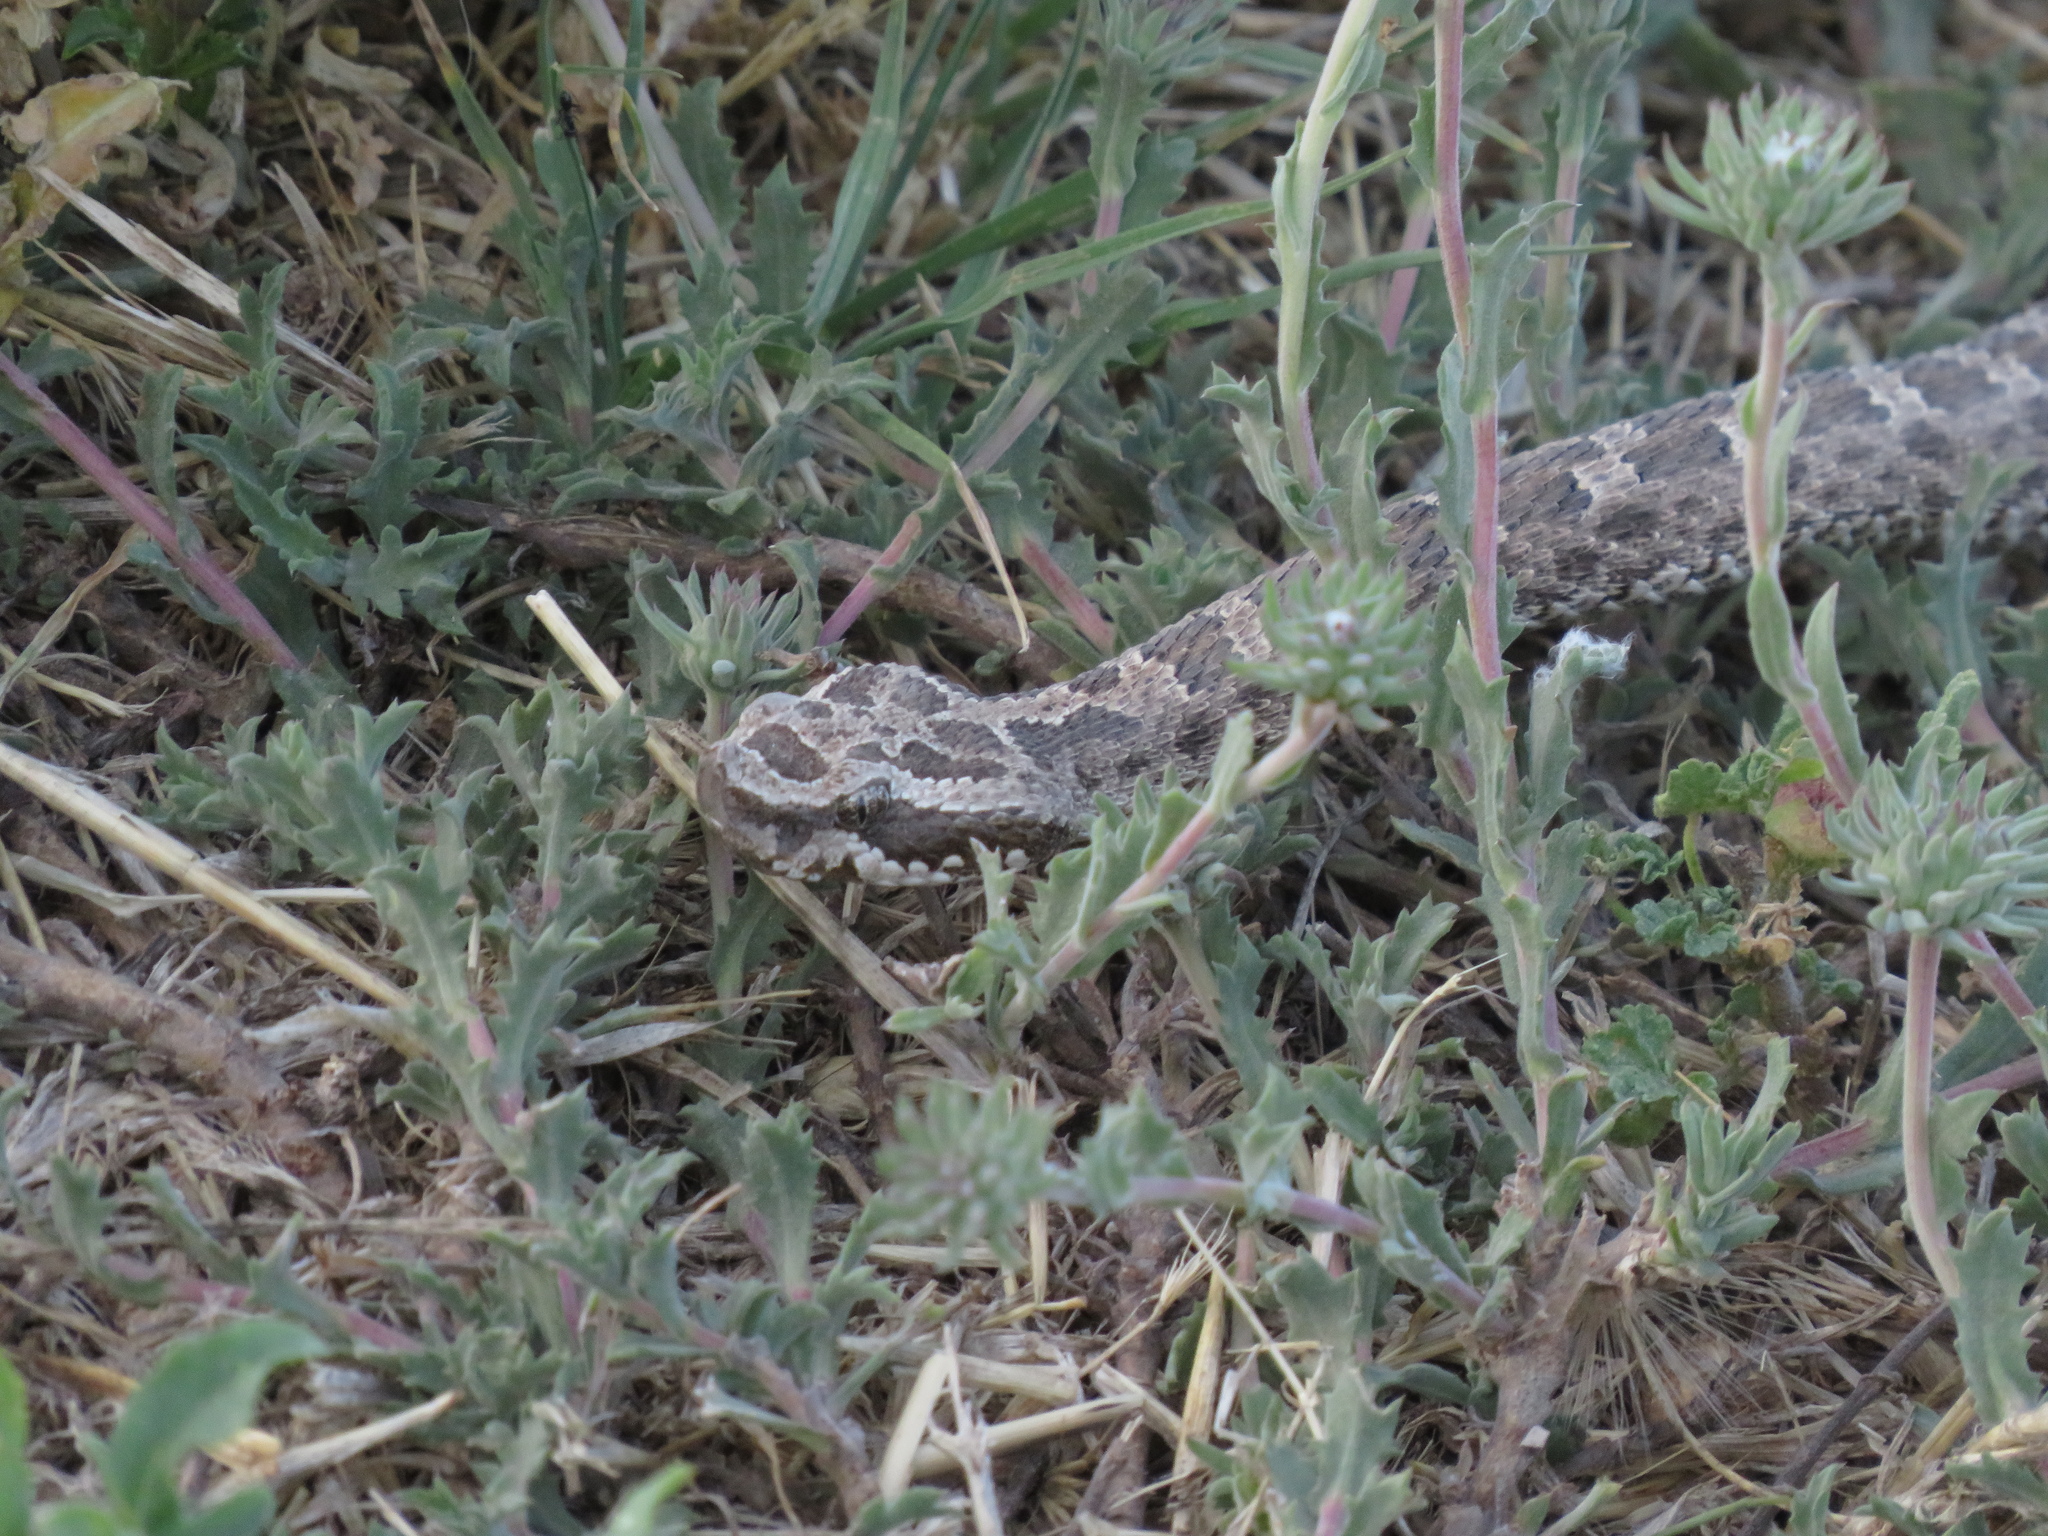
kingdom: Animalia
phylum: Chordata
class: Squamata
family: Viperidae
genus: Bothrops
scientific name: Bothrops ammodytoides
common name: Yararanata
